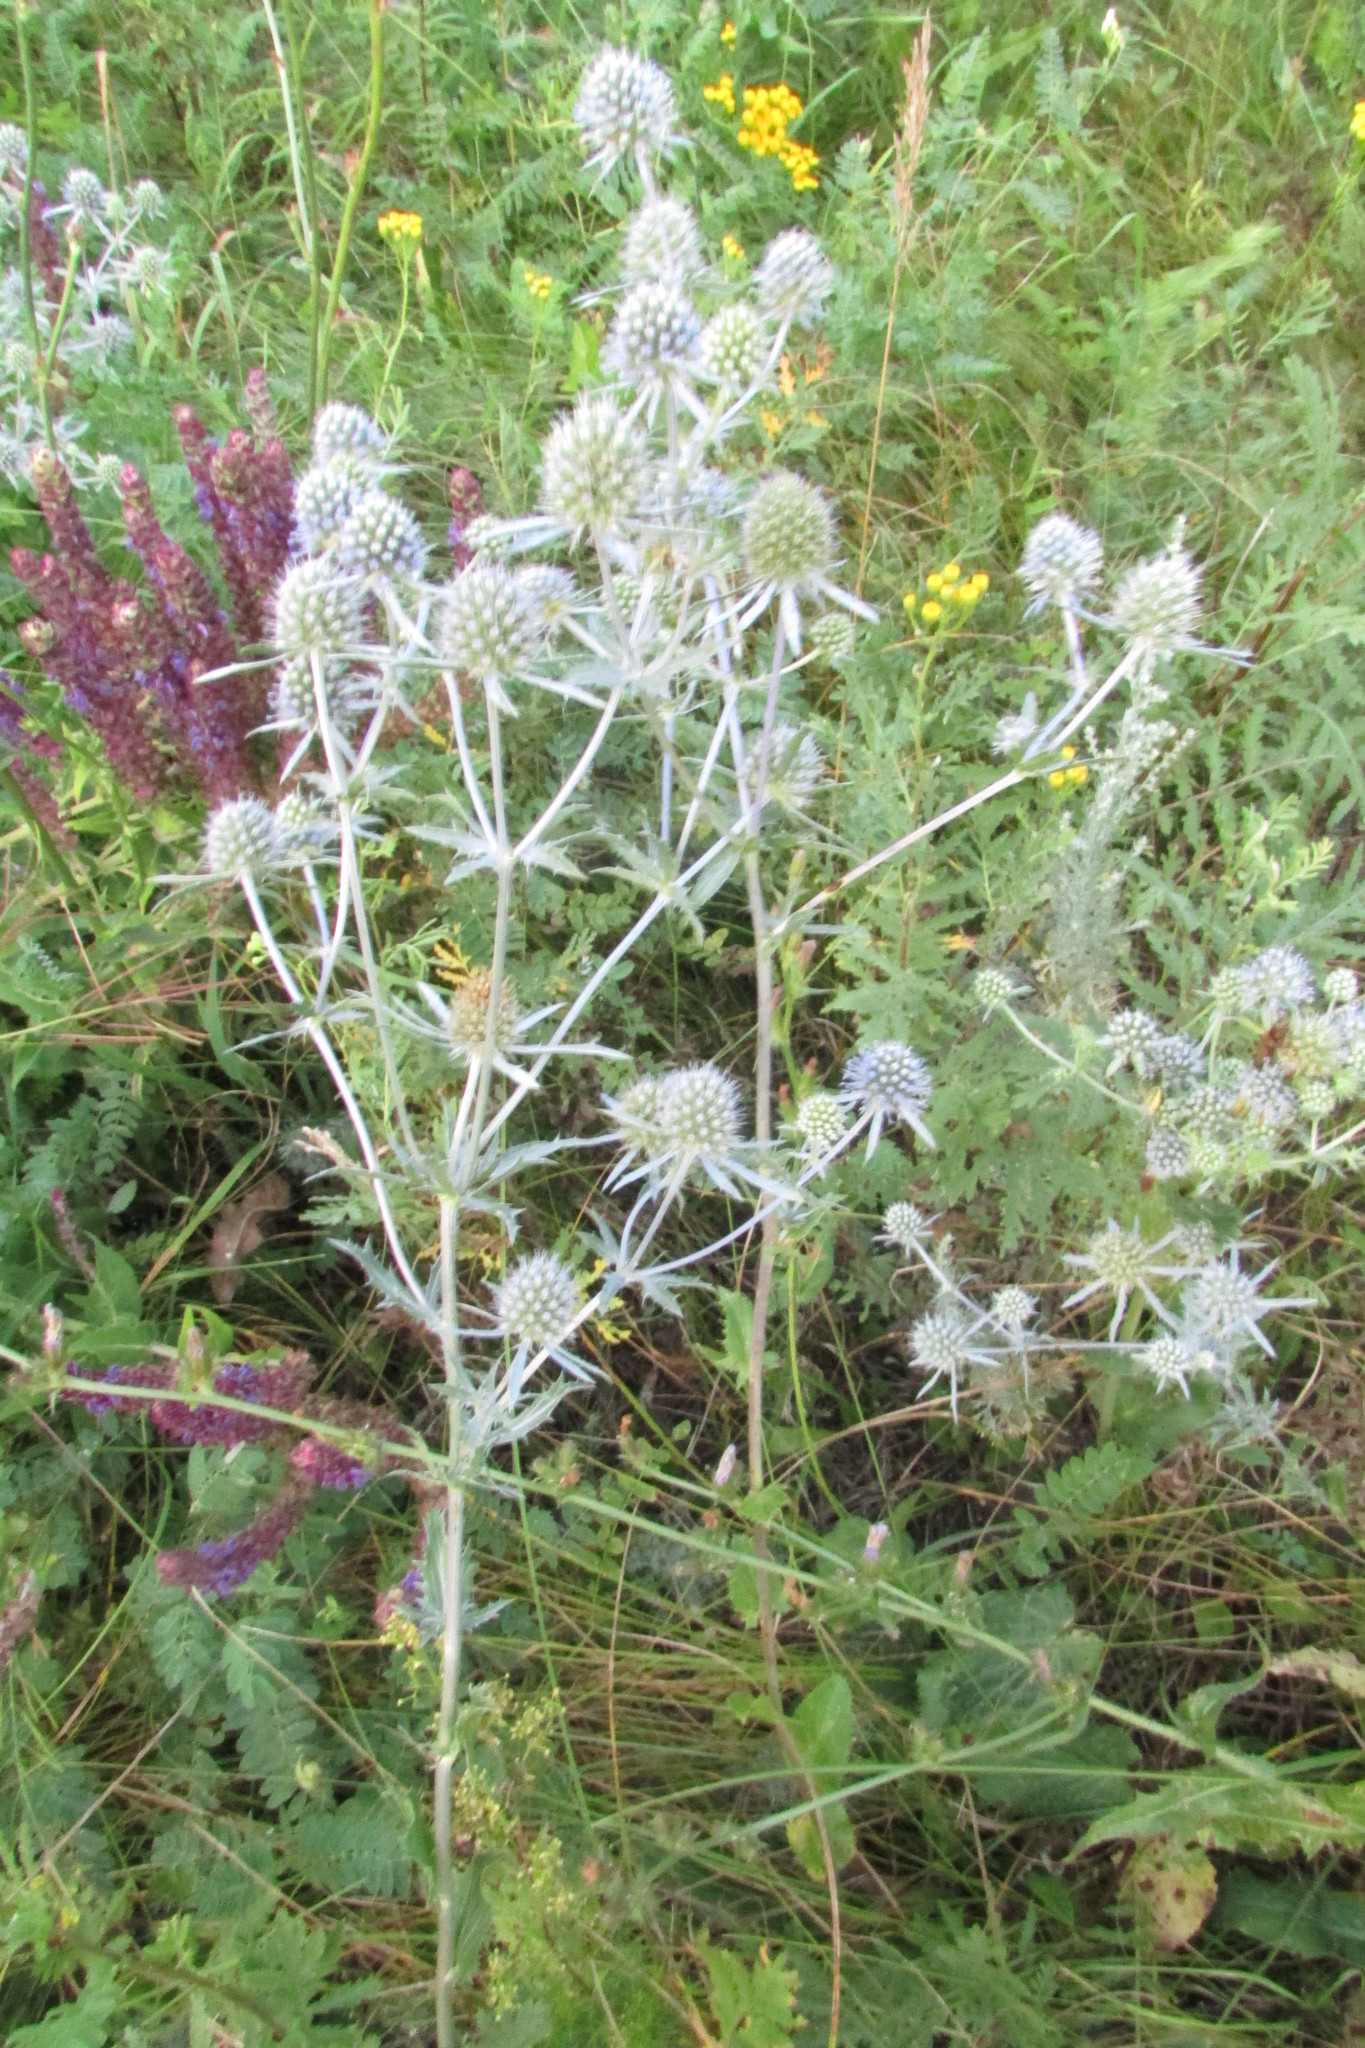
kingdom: Plantae
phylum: Tracheophyta
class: Magnoliopsida
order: Apiales
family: Apiaceae
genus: Eryngium
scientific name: Eryngium planum
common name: Blue eryngo
